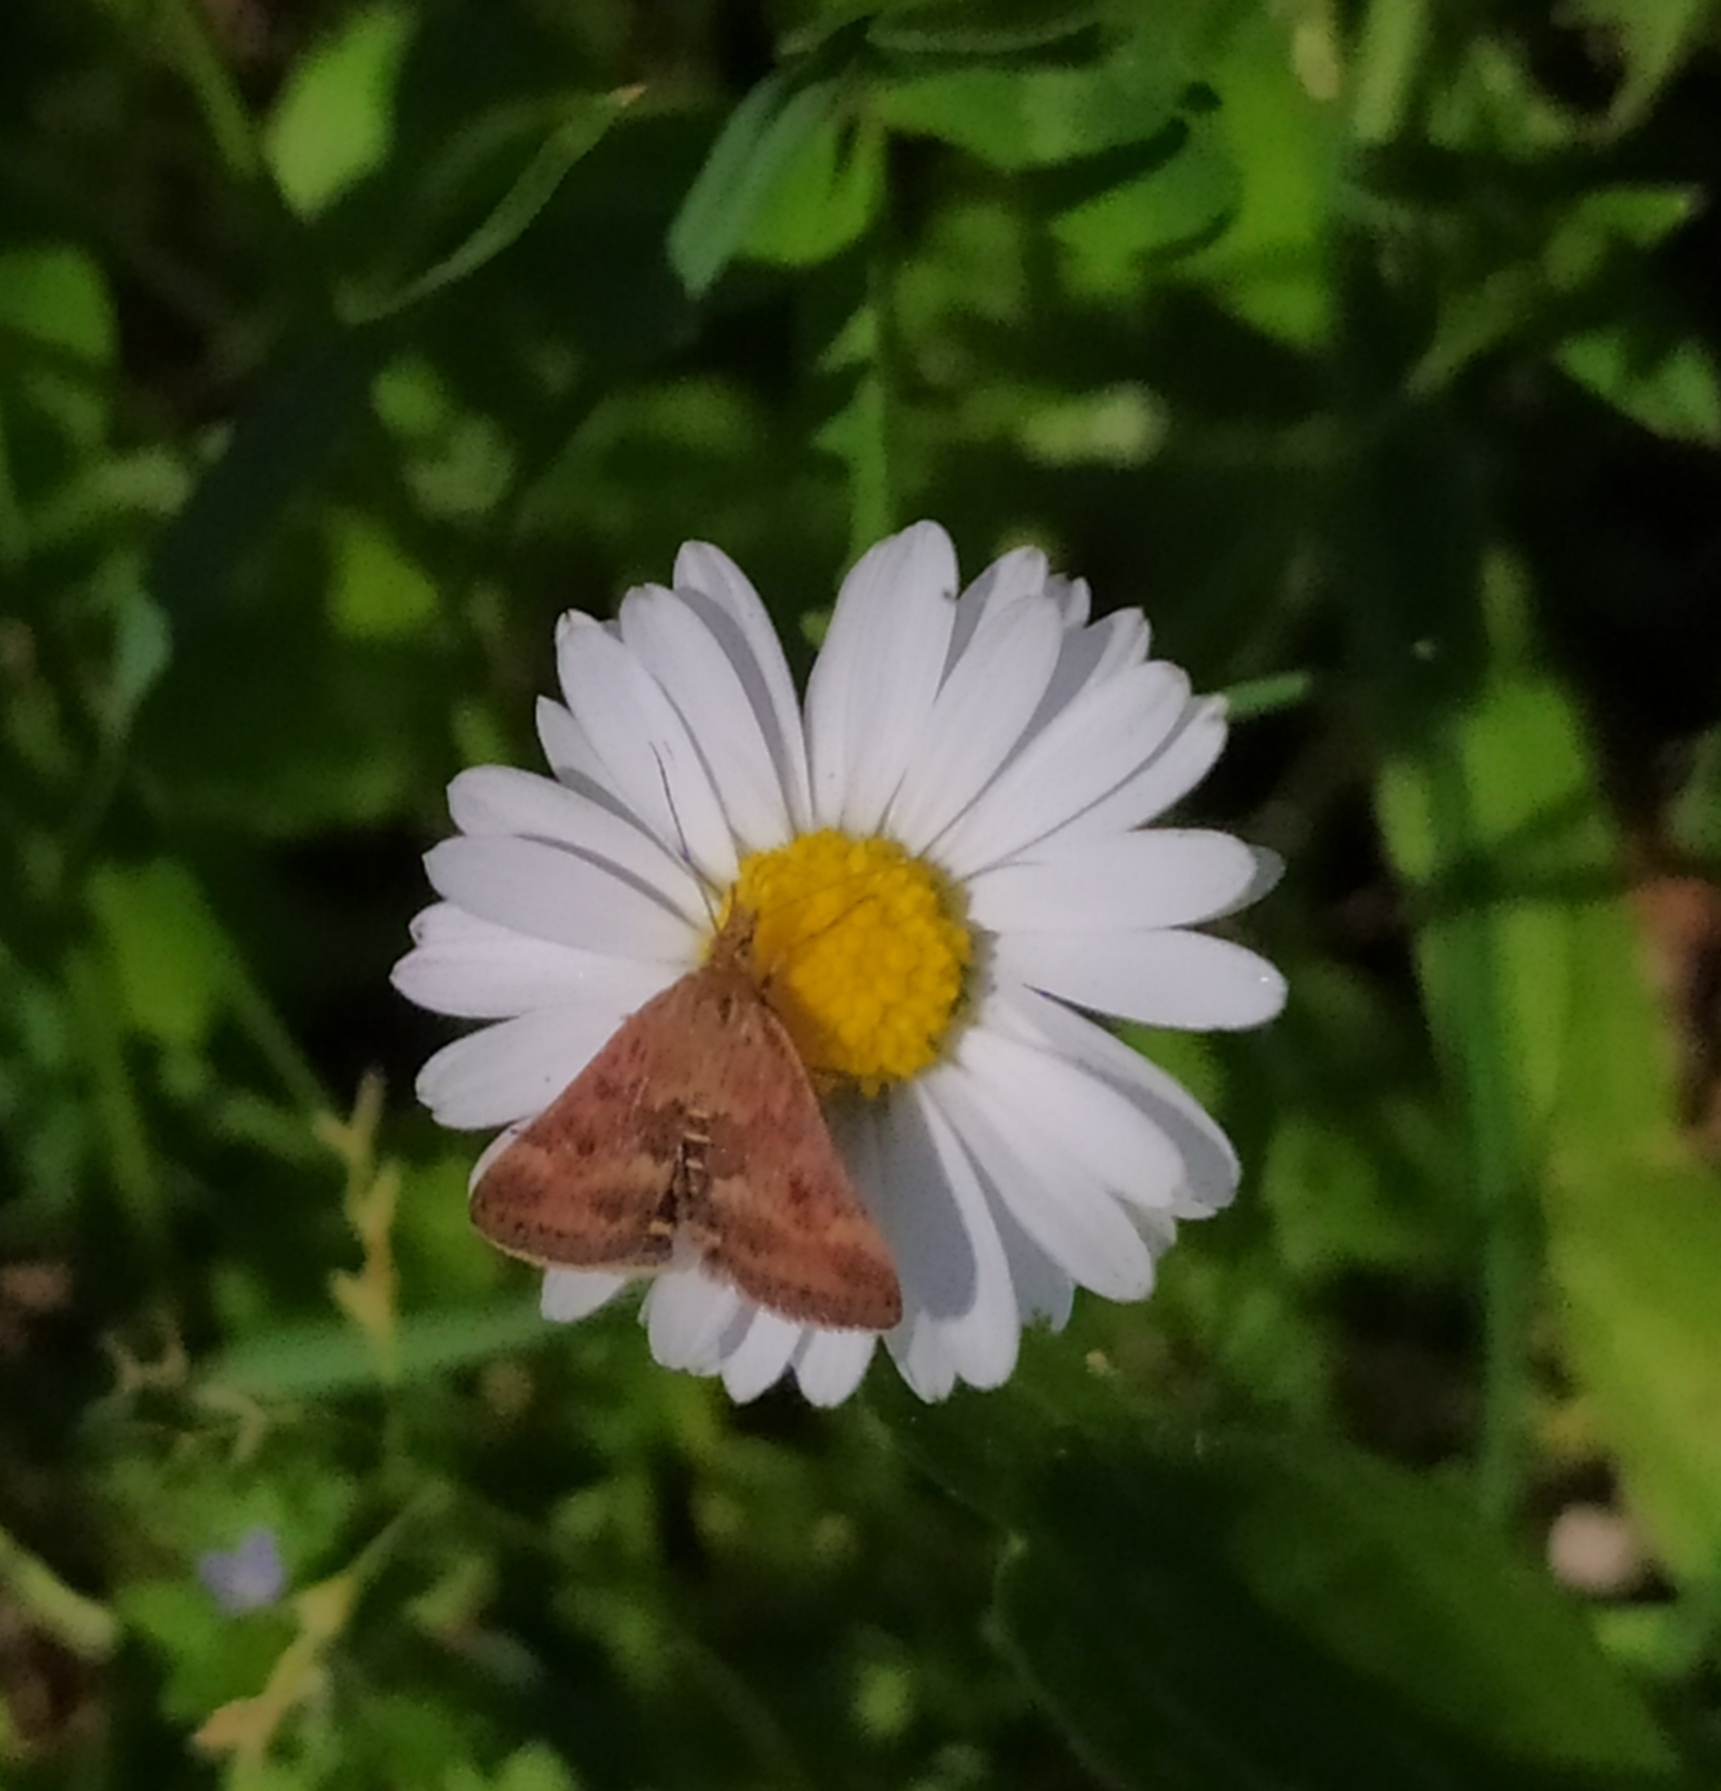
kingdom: Animalia
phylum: Arthropoda
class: Insecta
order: Lepidoptera
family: Crambidae
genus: Pyrausta
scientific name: Pyrausta despicata
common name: Straw-barred pearl
